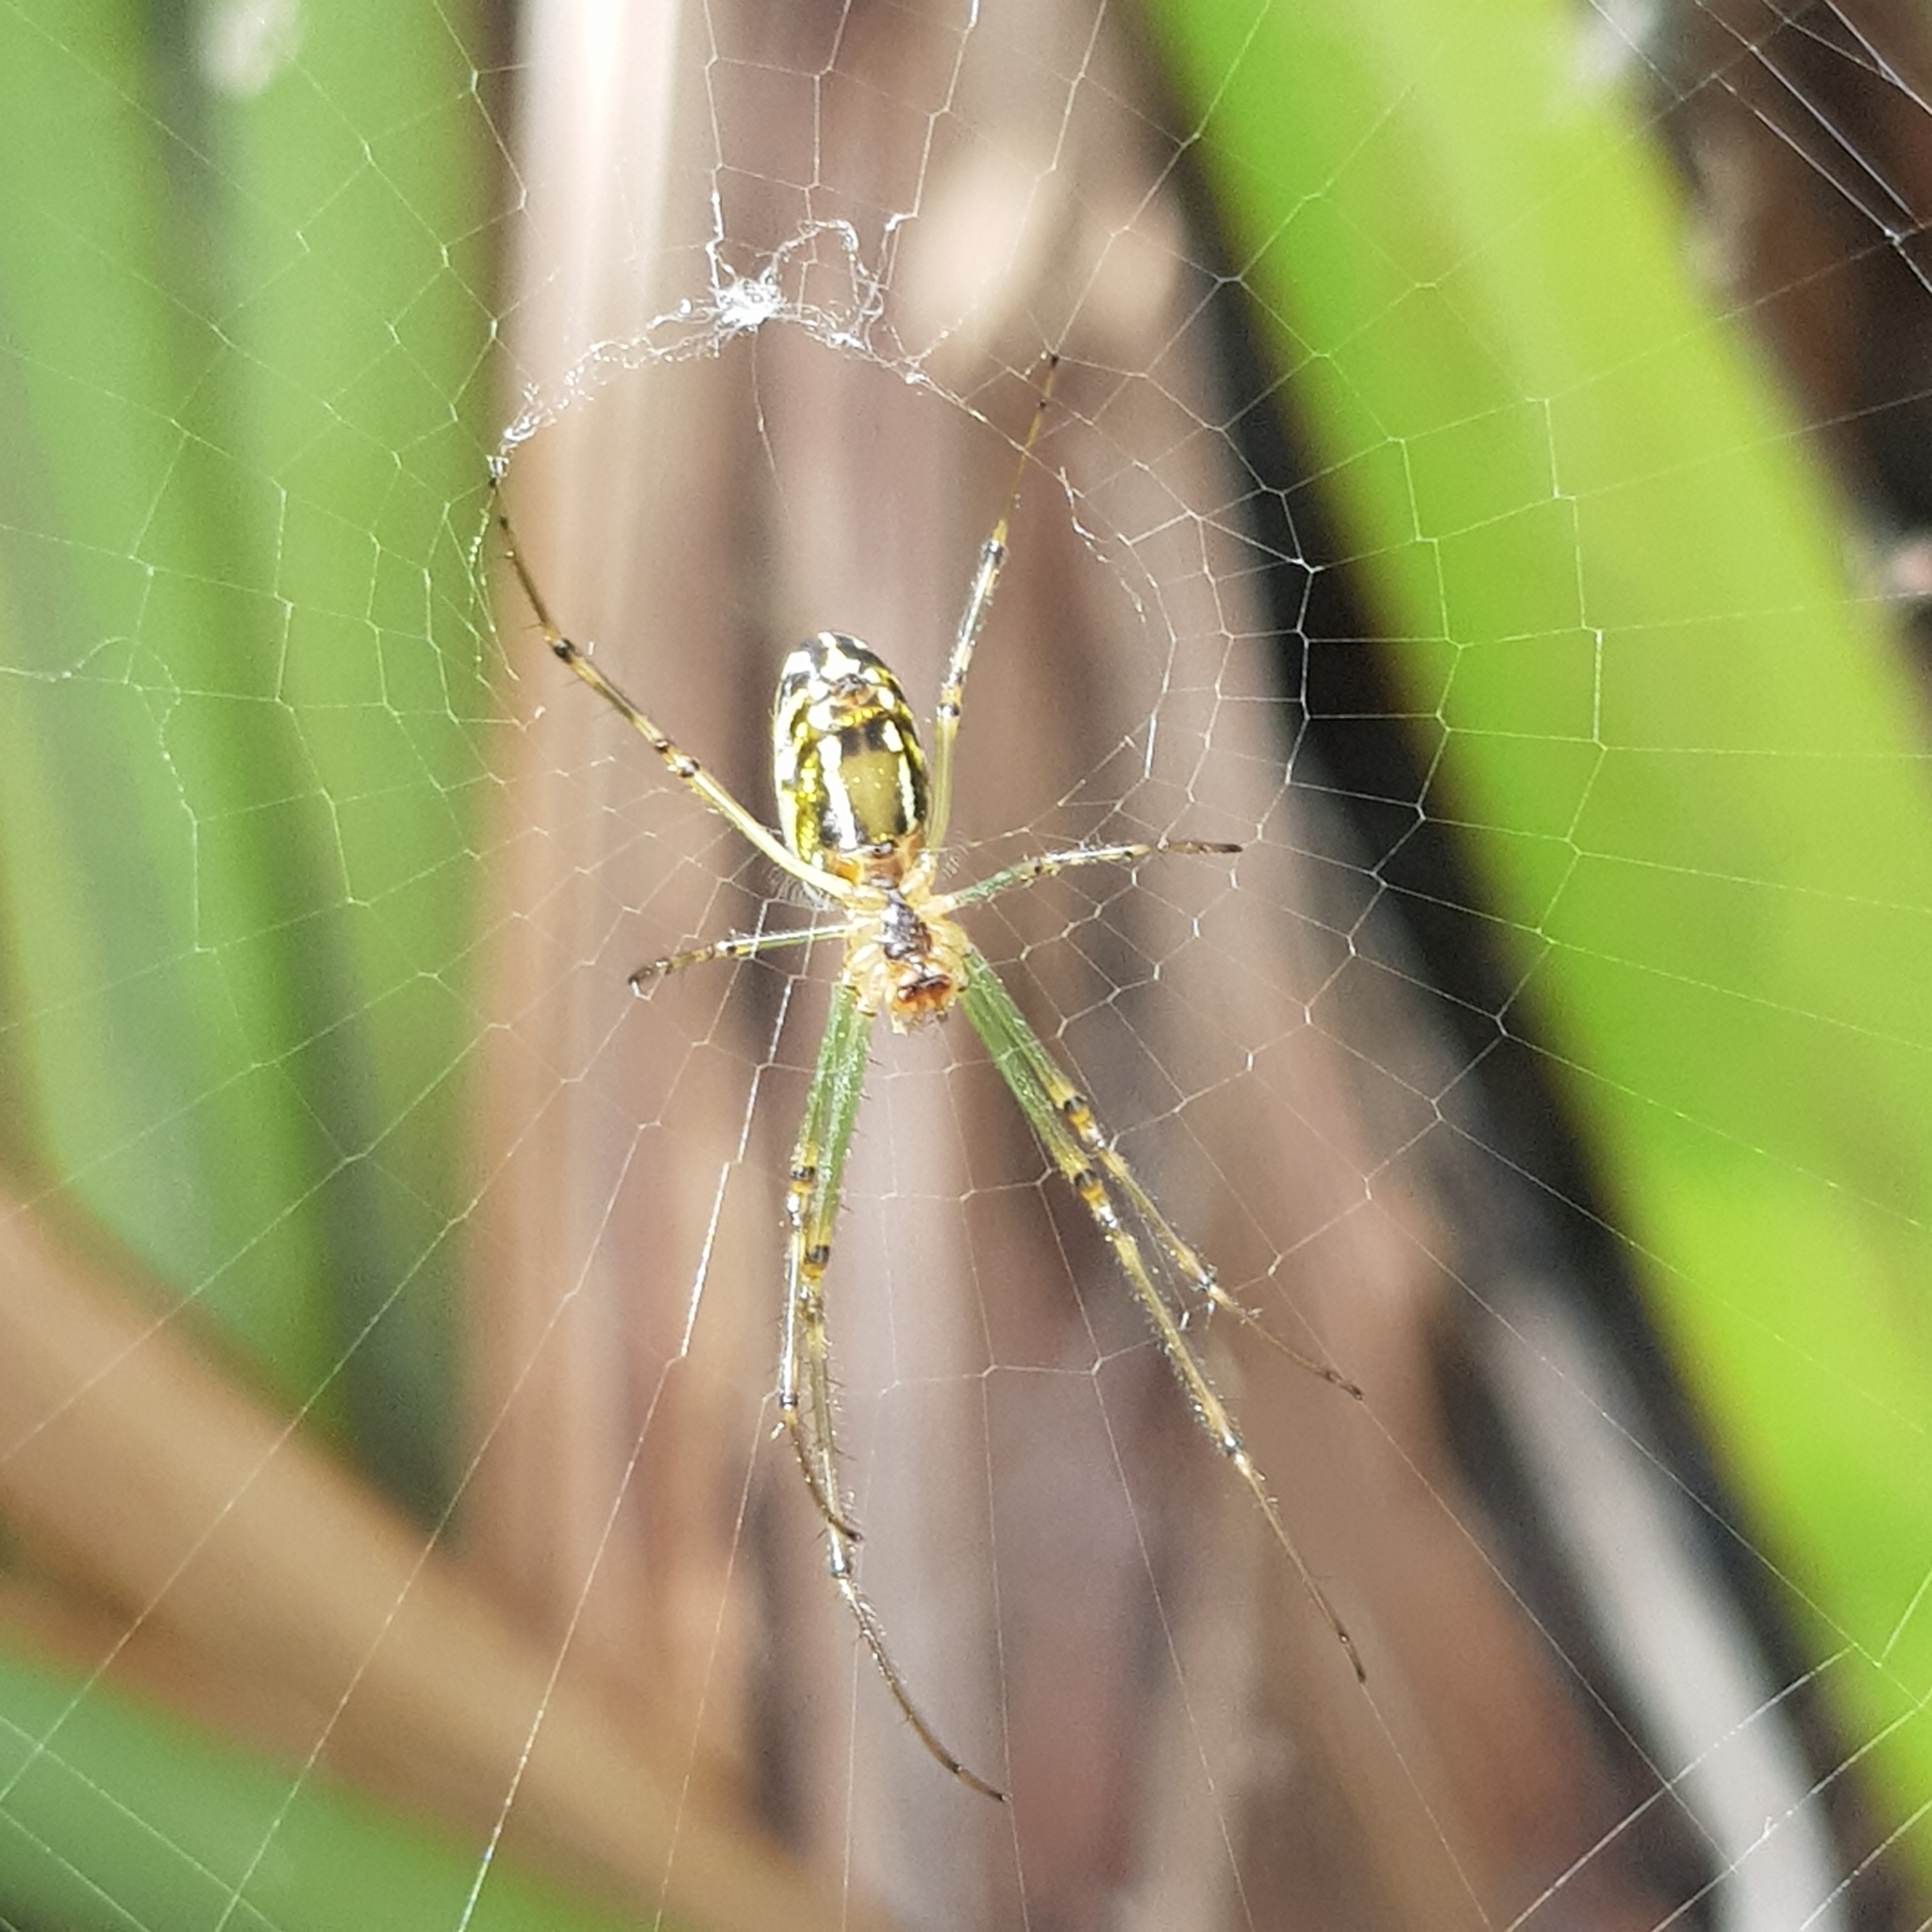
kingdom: Animalia
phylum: Arthropoda
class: Arachnida
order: Araneae
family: Tetragnathidae
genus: Leucauge
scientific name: Leucauge dromedaria
